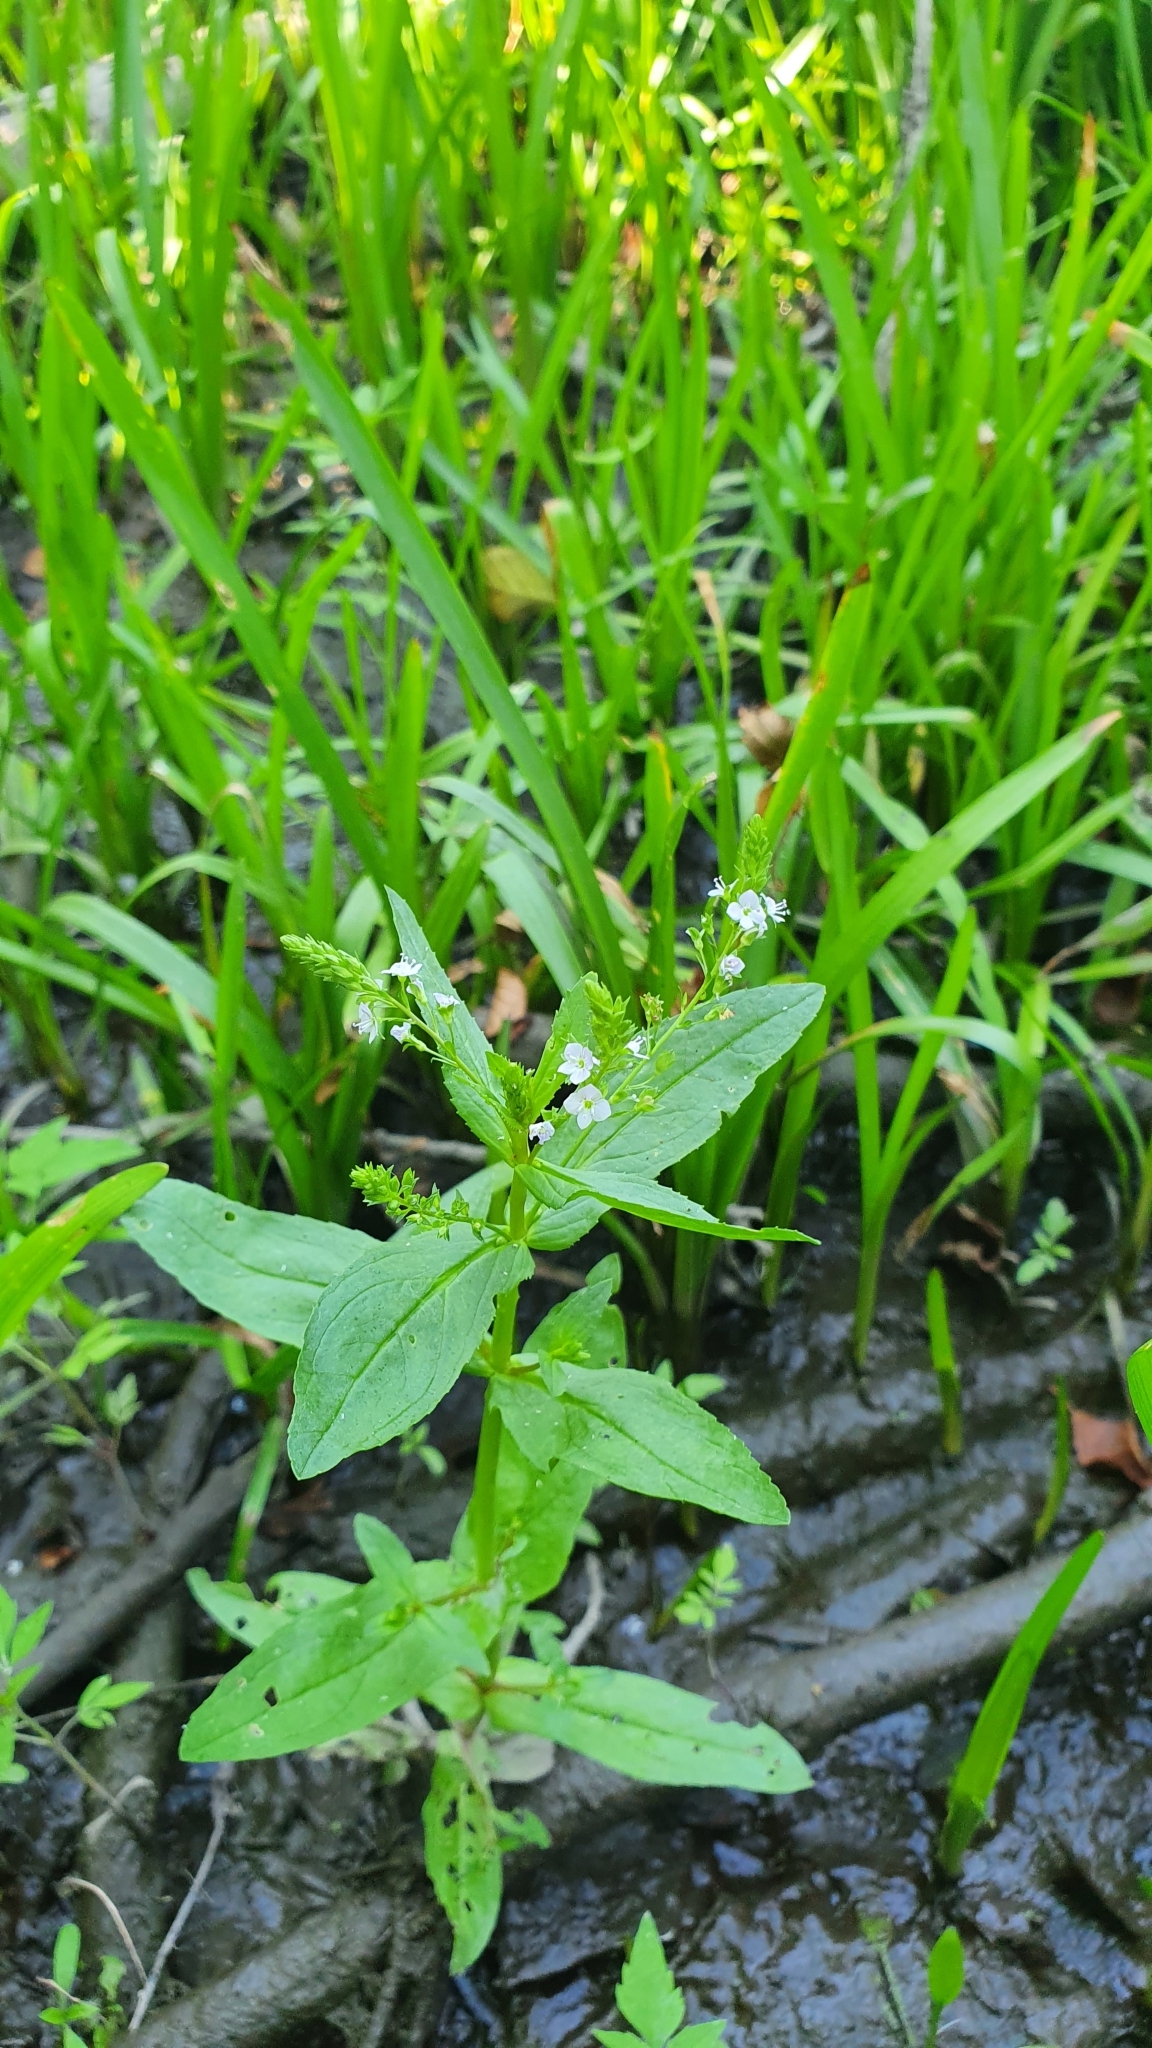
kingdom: Plantae
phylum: Tracheophyta
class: Magnoliopsida
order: Lamiales
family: Plantaginaceae
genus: Veronica
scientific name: Veronica anagallis-aquatica
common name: Water speedwell
